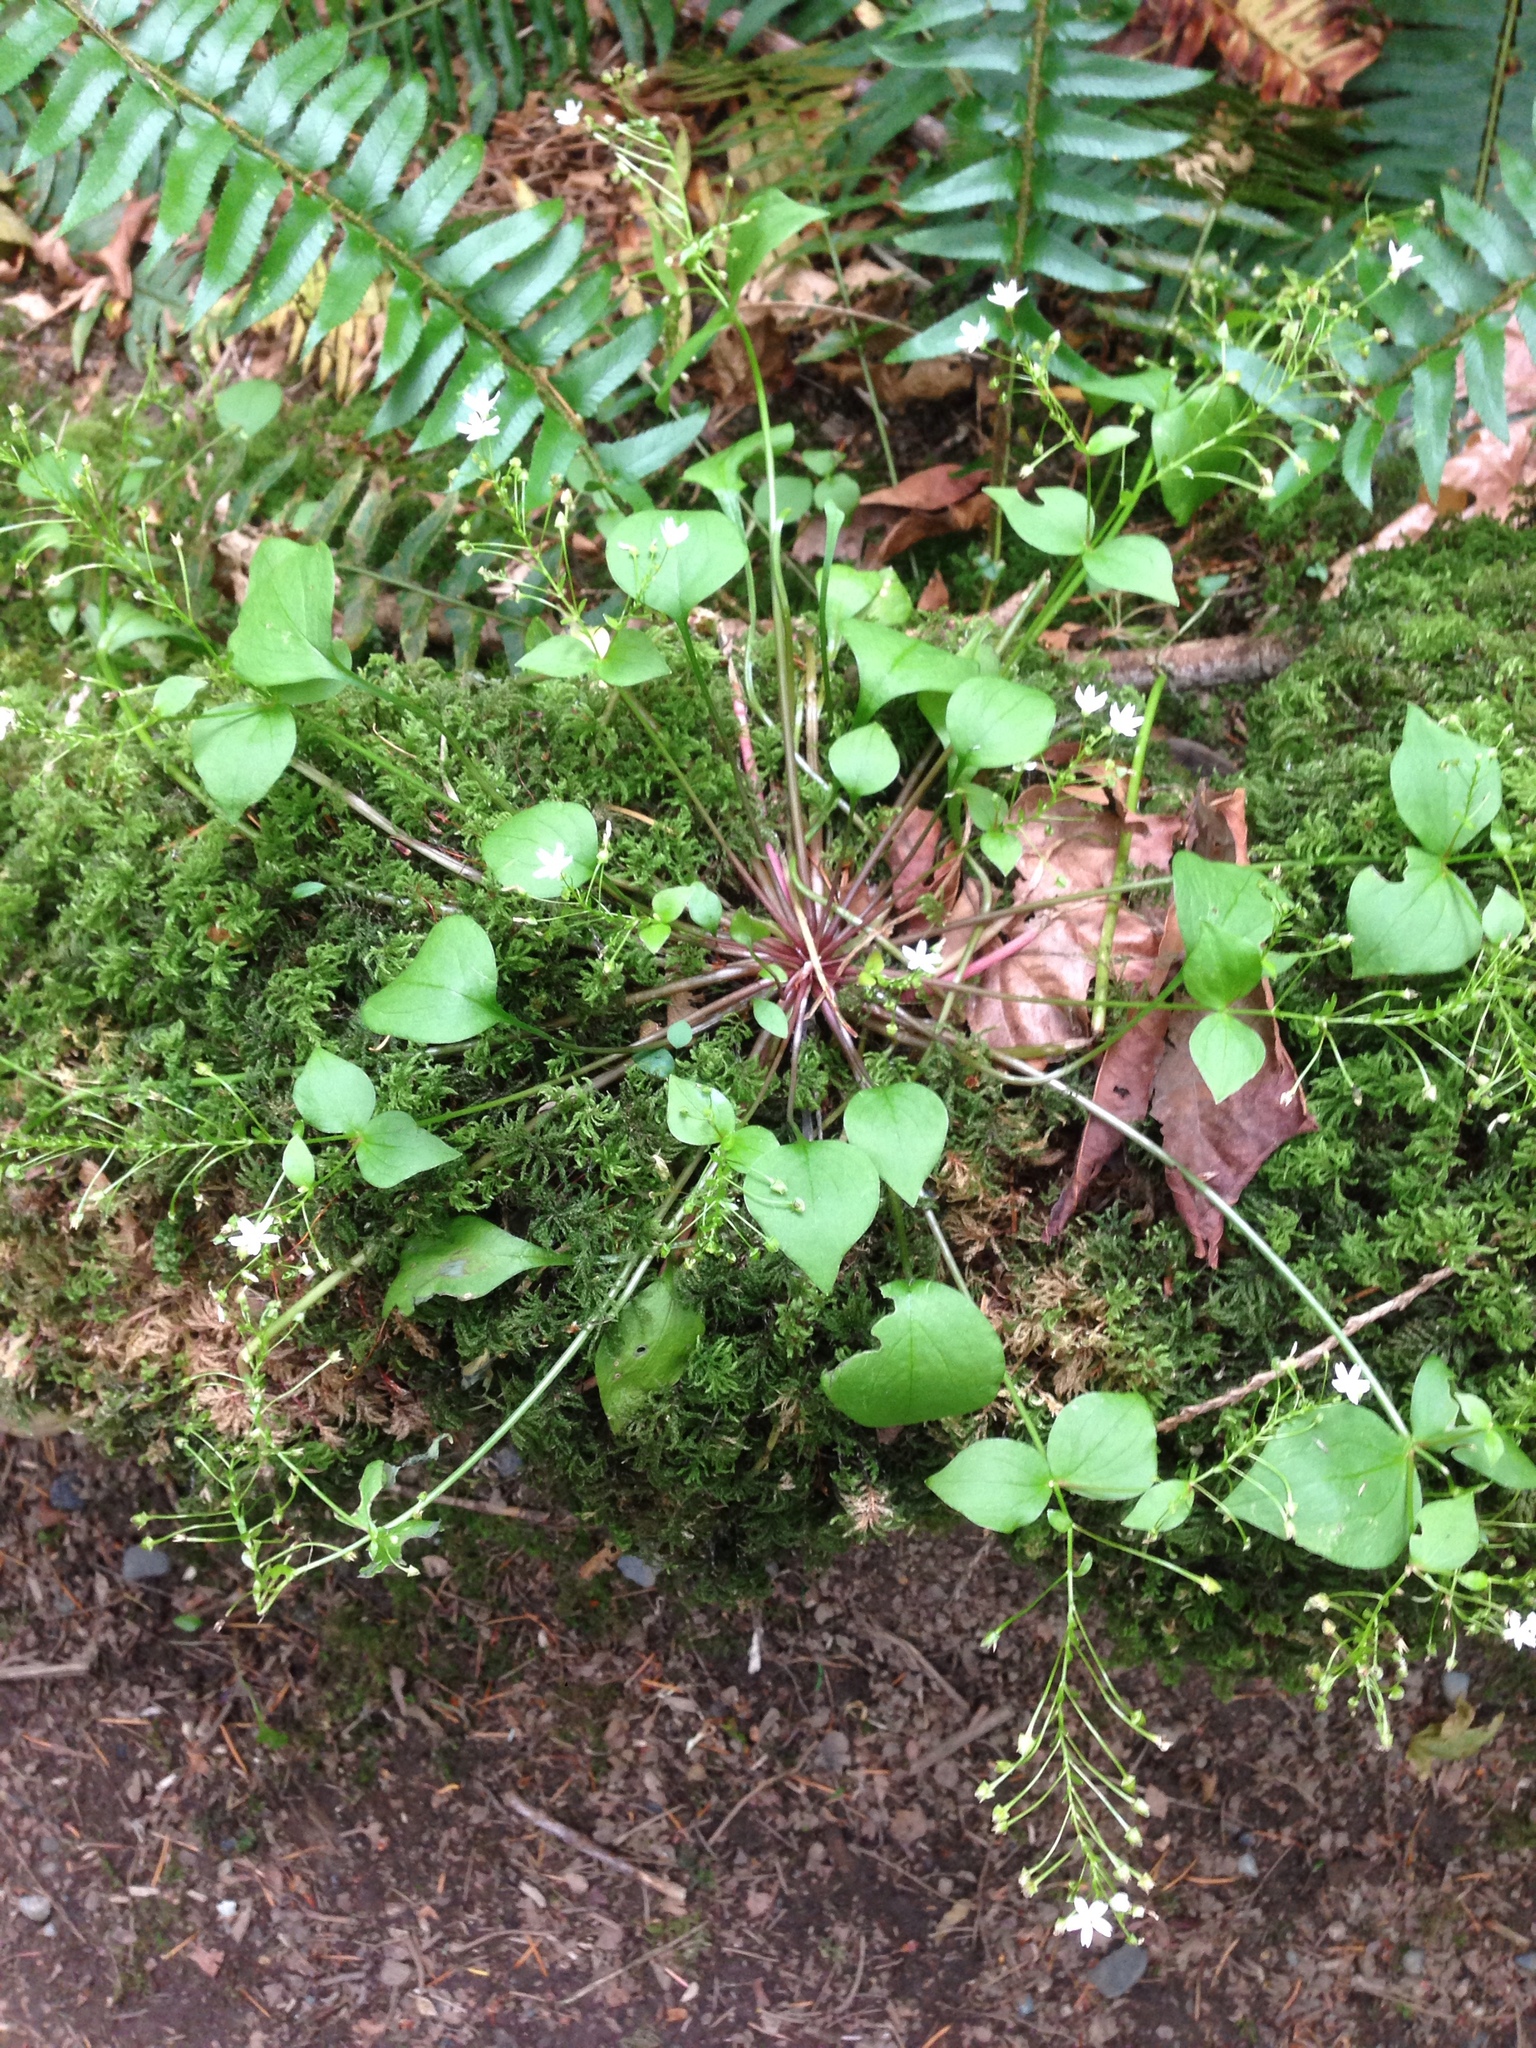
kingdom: Plantae
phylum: Tracheophyta
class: Magnoliopsida
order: Caryophyllales
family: Montiaceae
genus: Claytonia
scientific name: Claytonia sibirica
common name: Pink purslane
